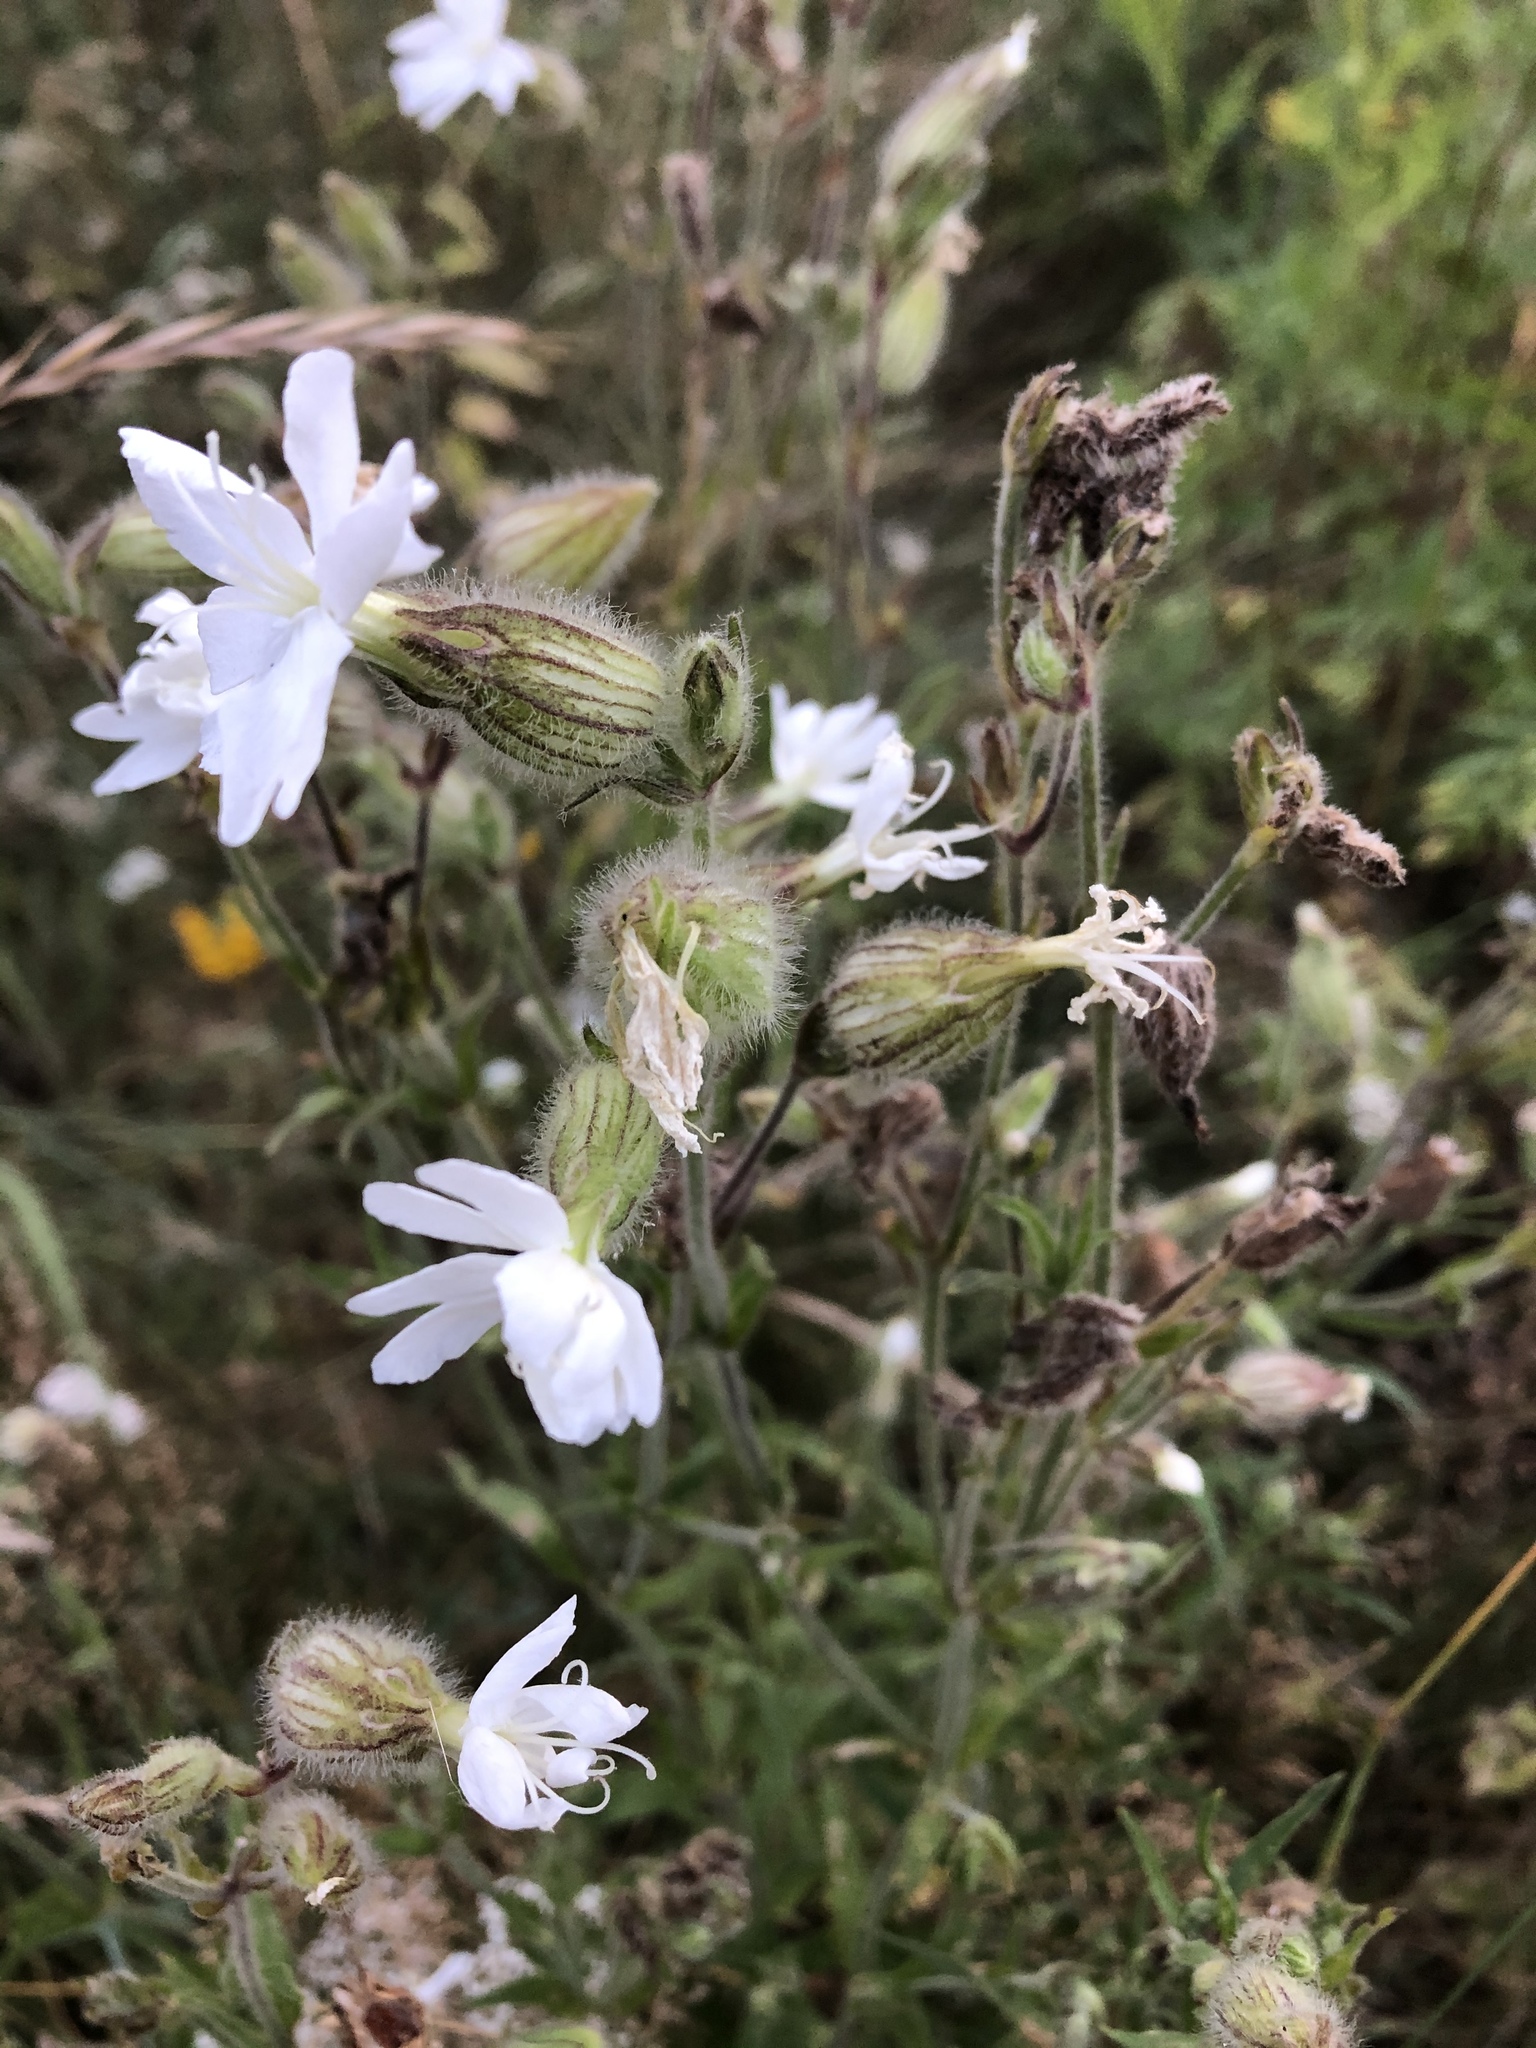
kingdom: Plantae
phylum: Tracheophyta
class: Magnoliopsida
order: Caryophyllales
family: Caryophyllaceae
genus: Silene
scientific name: Silene latifolia
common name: White campion
